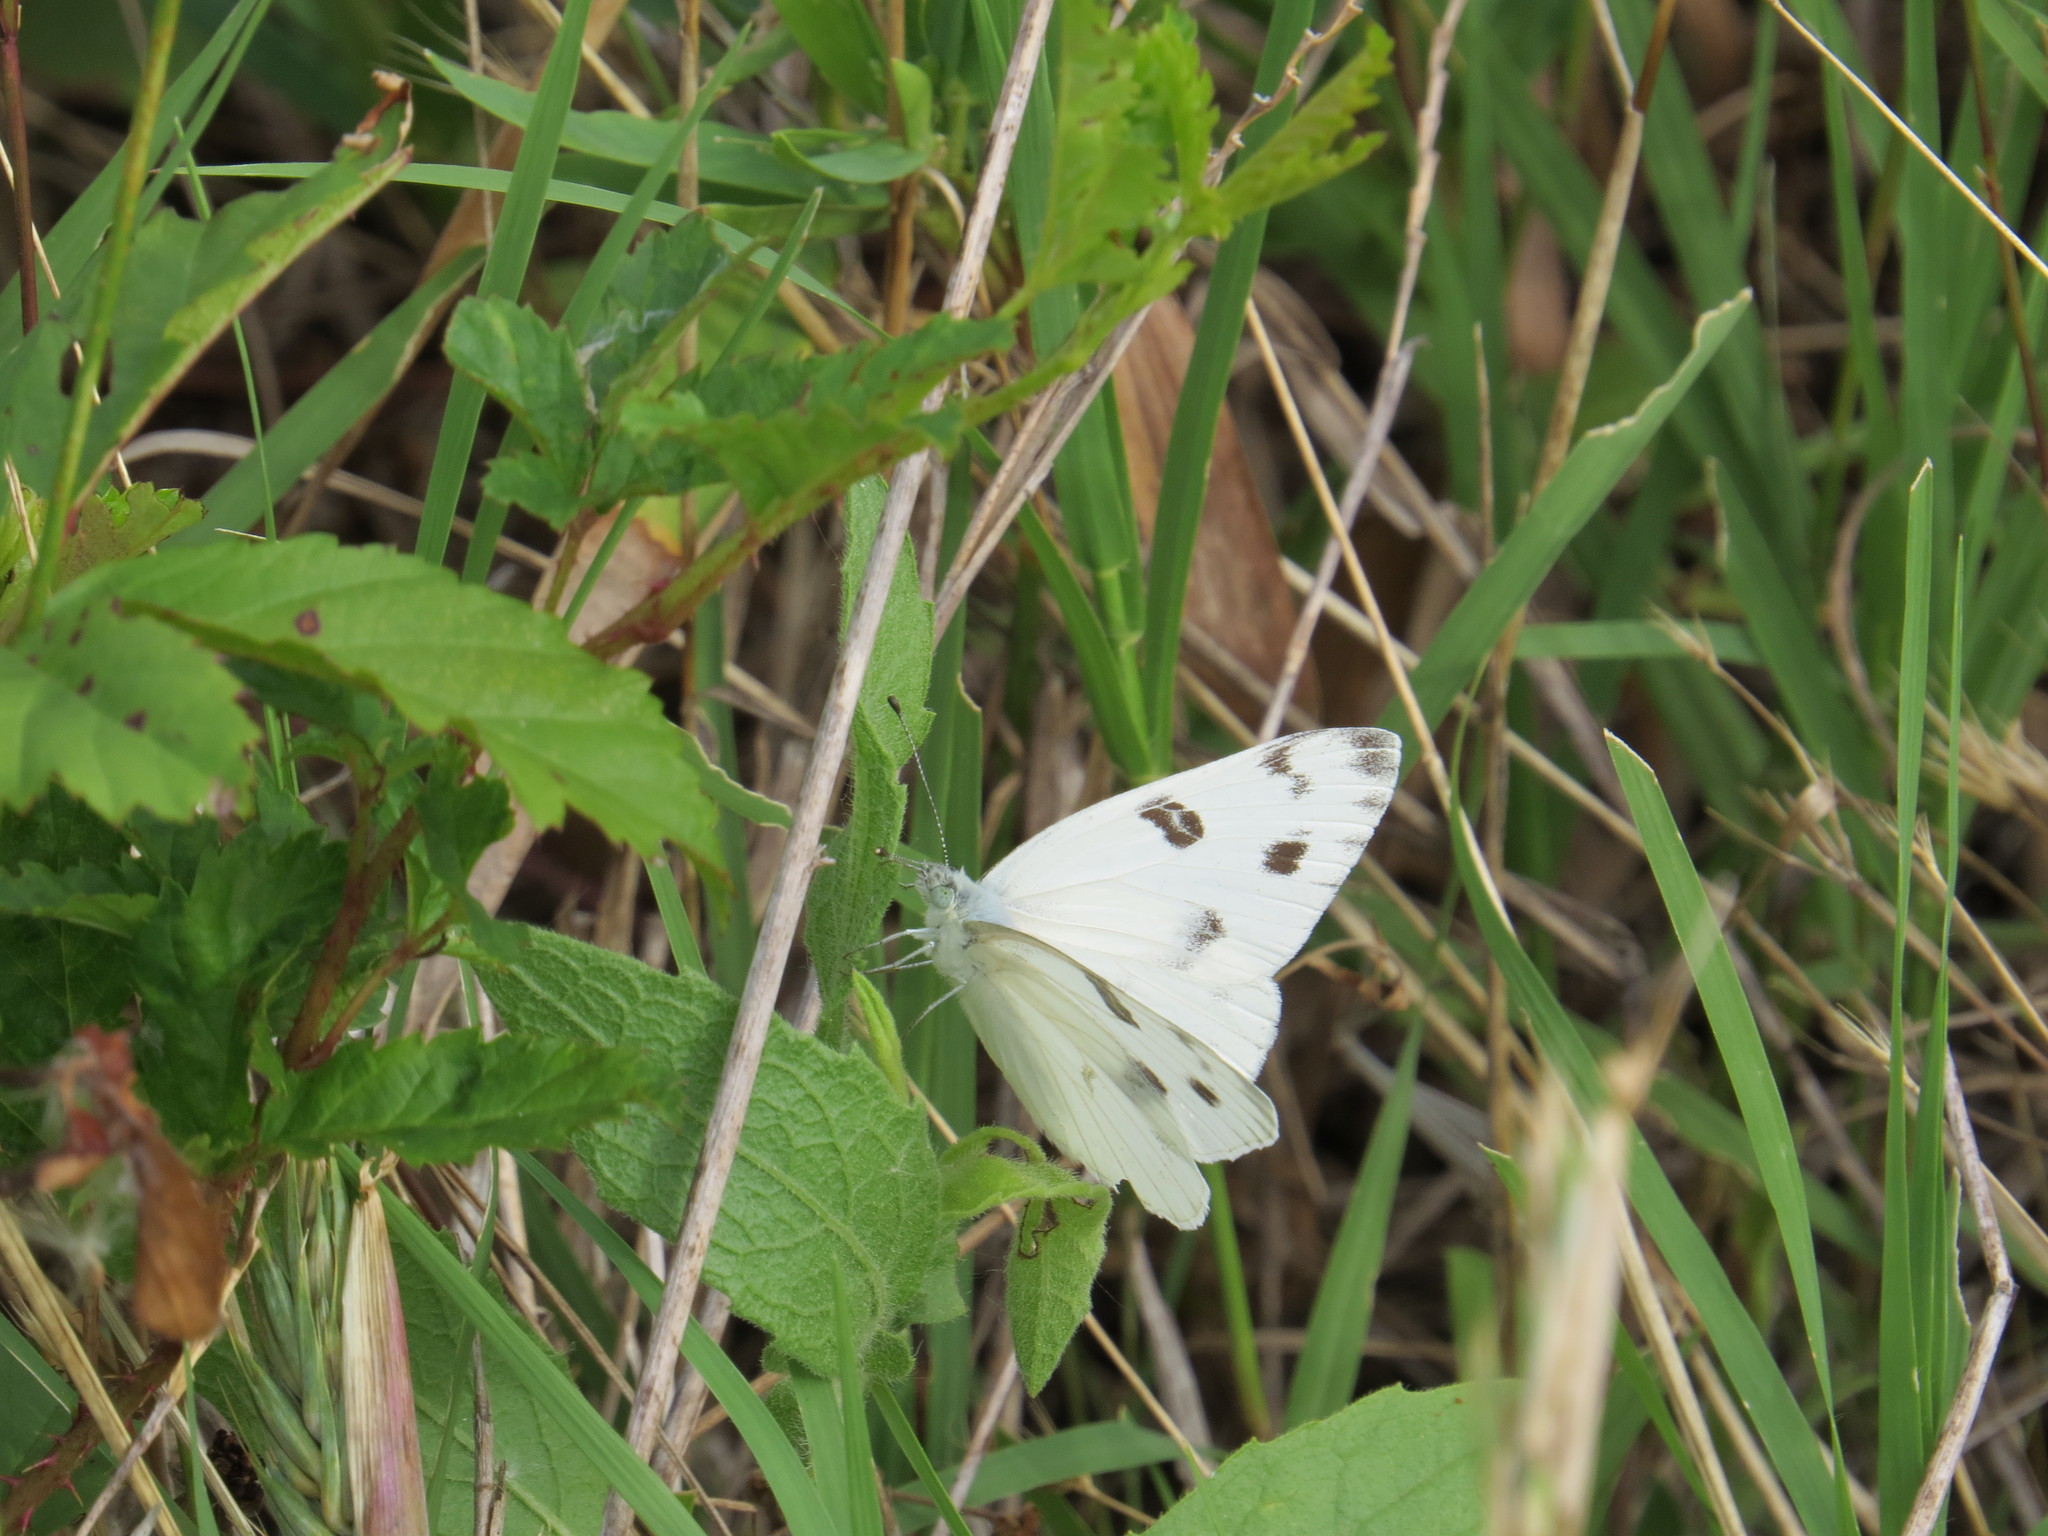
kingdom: Animalia
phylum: Arthropoda
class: Insecta
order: Lepidoptera
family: Pieridae
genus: Pontia
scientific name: Pontia protodice
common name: Checkered white
